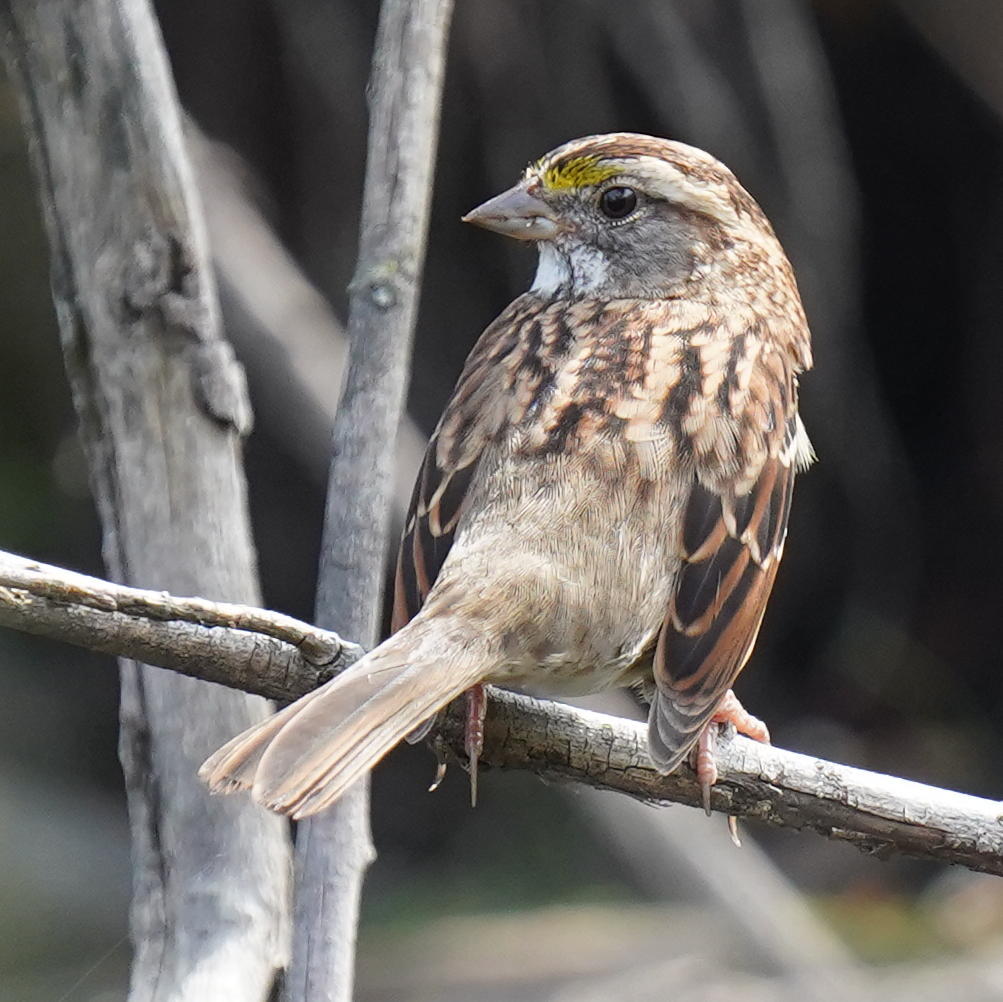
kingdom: Animalia
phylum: Chordata
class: Aves
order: Passeriformes
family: Passerellidae
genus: Zonotrichia
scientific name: Zonotrichia albicollis
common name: White-throated sparrow
